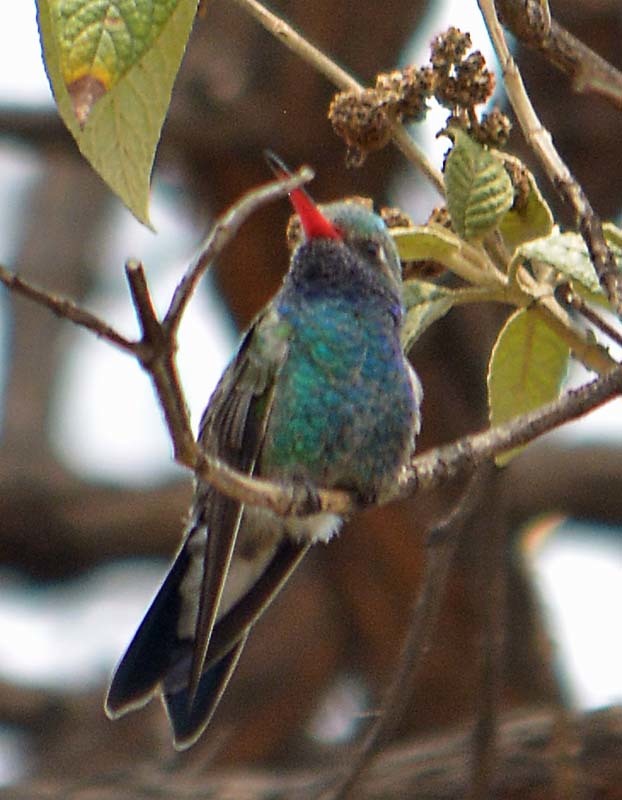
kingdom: Animalia
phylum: Chordata
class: Aves
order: Apodiformes
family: Trochilidae
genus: Cynanthus
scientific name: Cynanthus latirostris
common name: Broad-billed hummingbird
